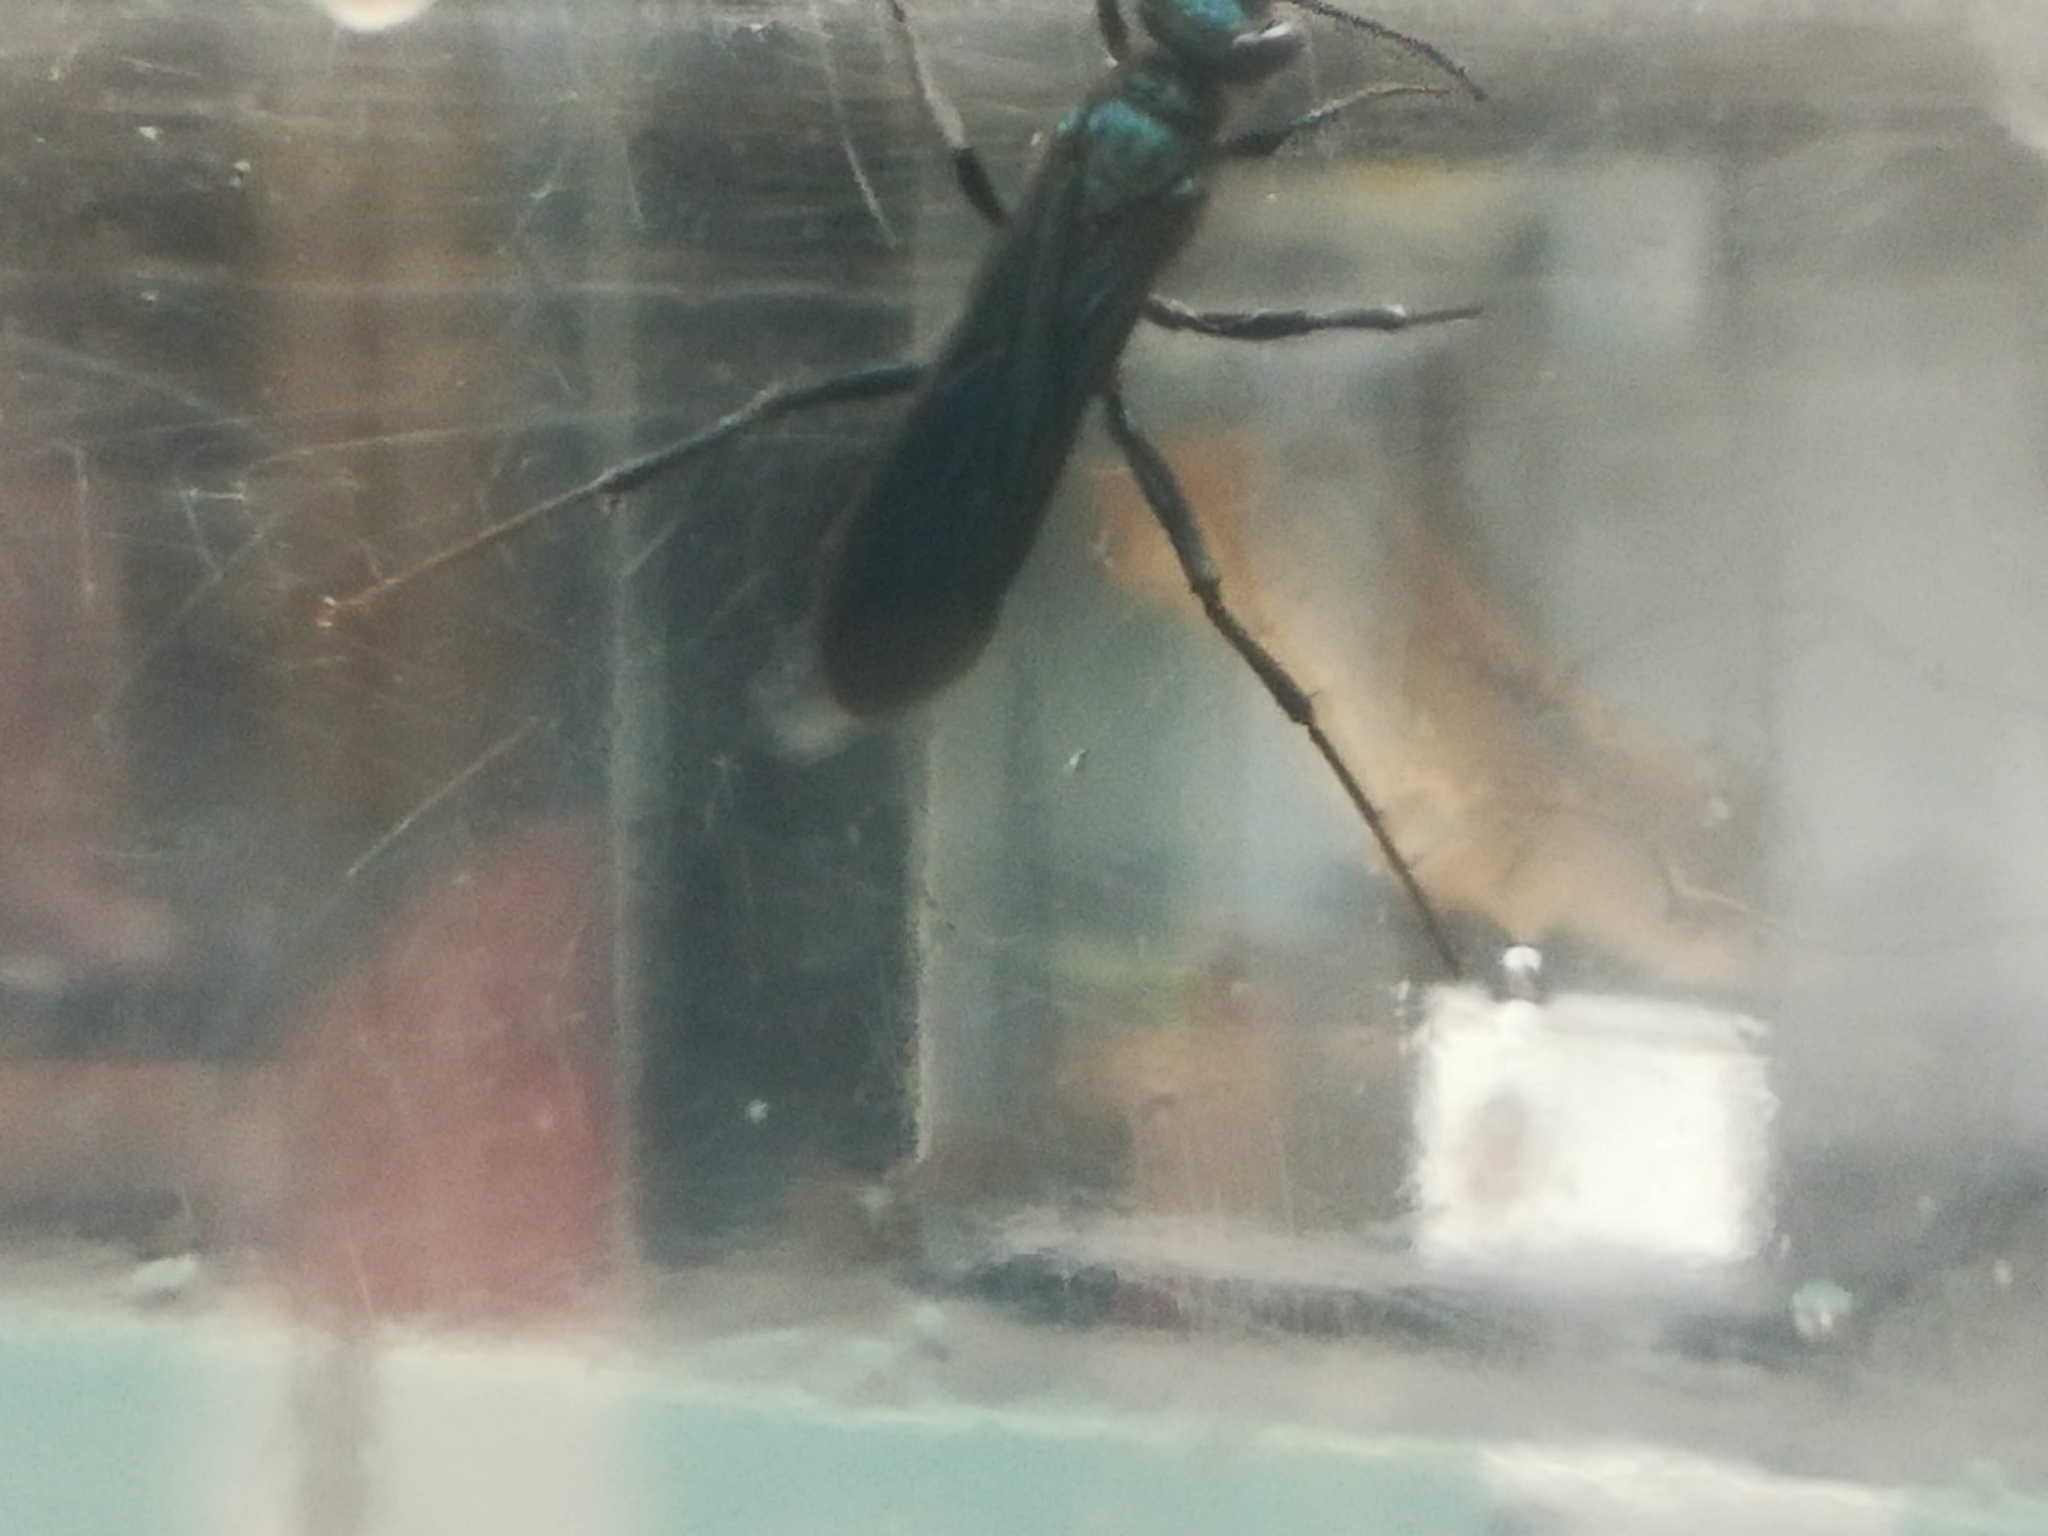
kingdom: Animalia
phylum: Arthropoda
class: Insecta
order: Hymenoptera
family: Sphecidae
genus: Chalybion
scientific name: Chalybion californicum
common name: Mud dauber
